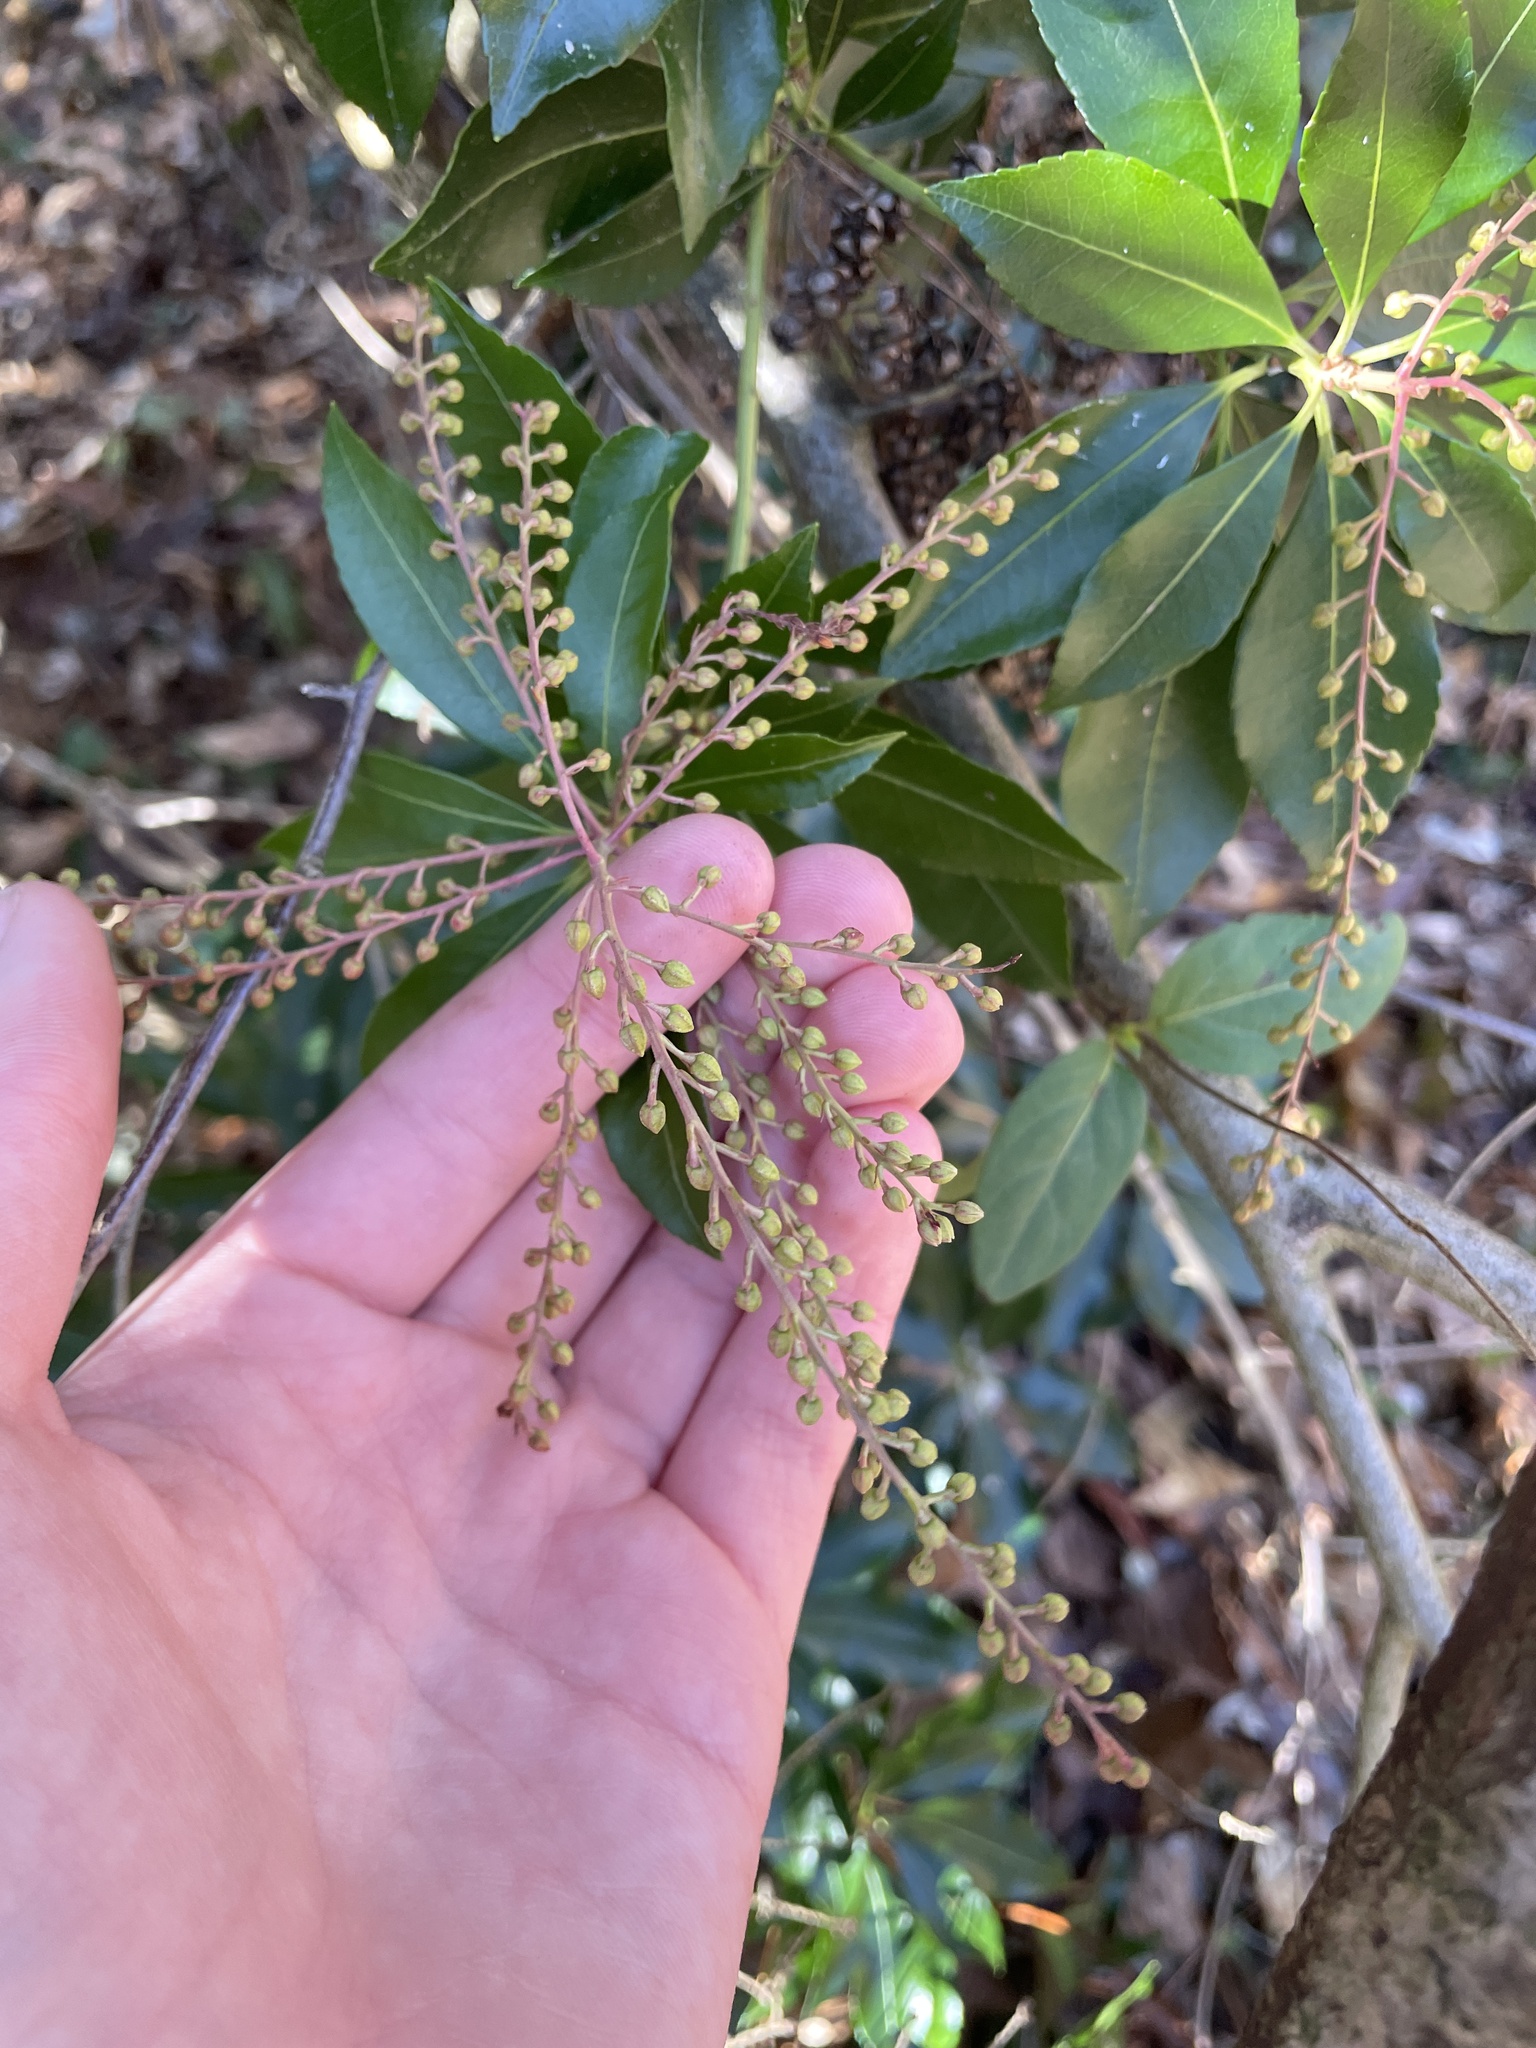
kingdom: Plantae
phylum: Tracheophyta
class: Magnoliopsida
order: Ericales
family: Ericaceae
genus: Pieris
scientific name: Pieris japonica
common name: Japanese pieris
